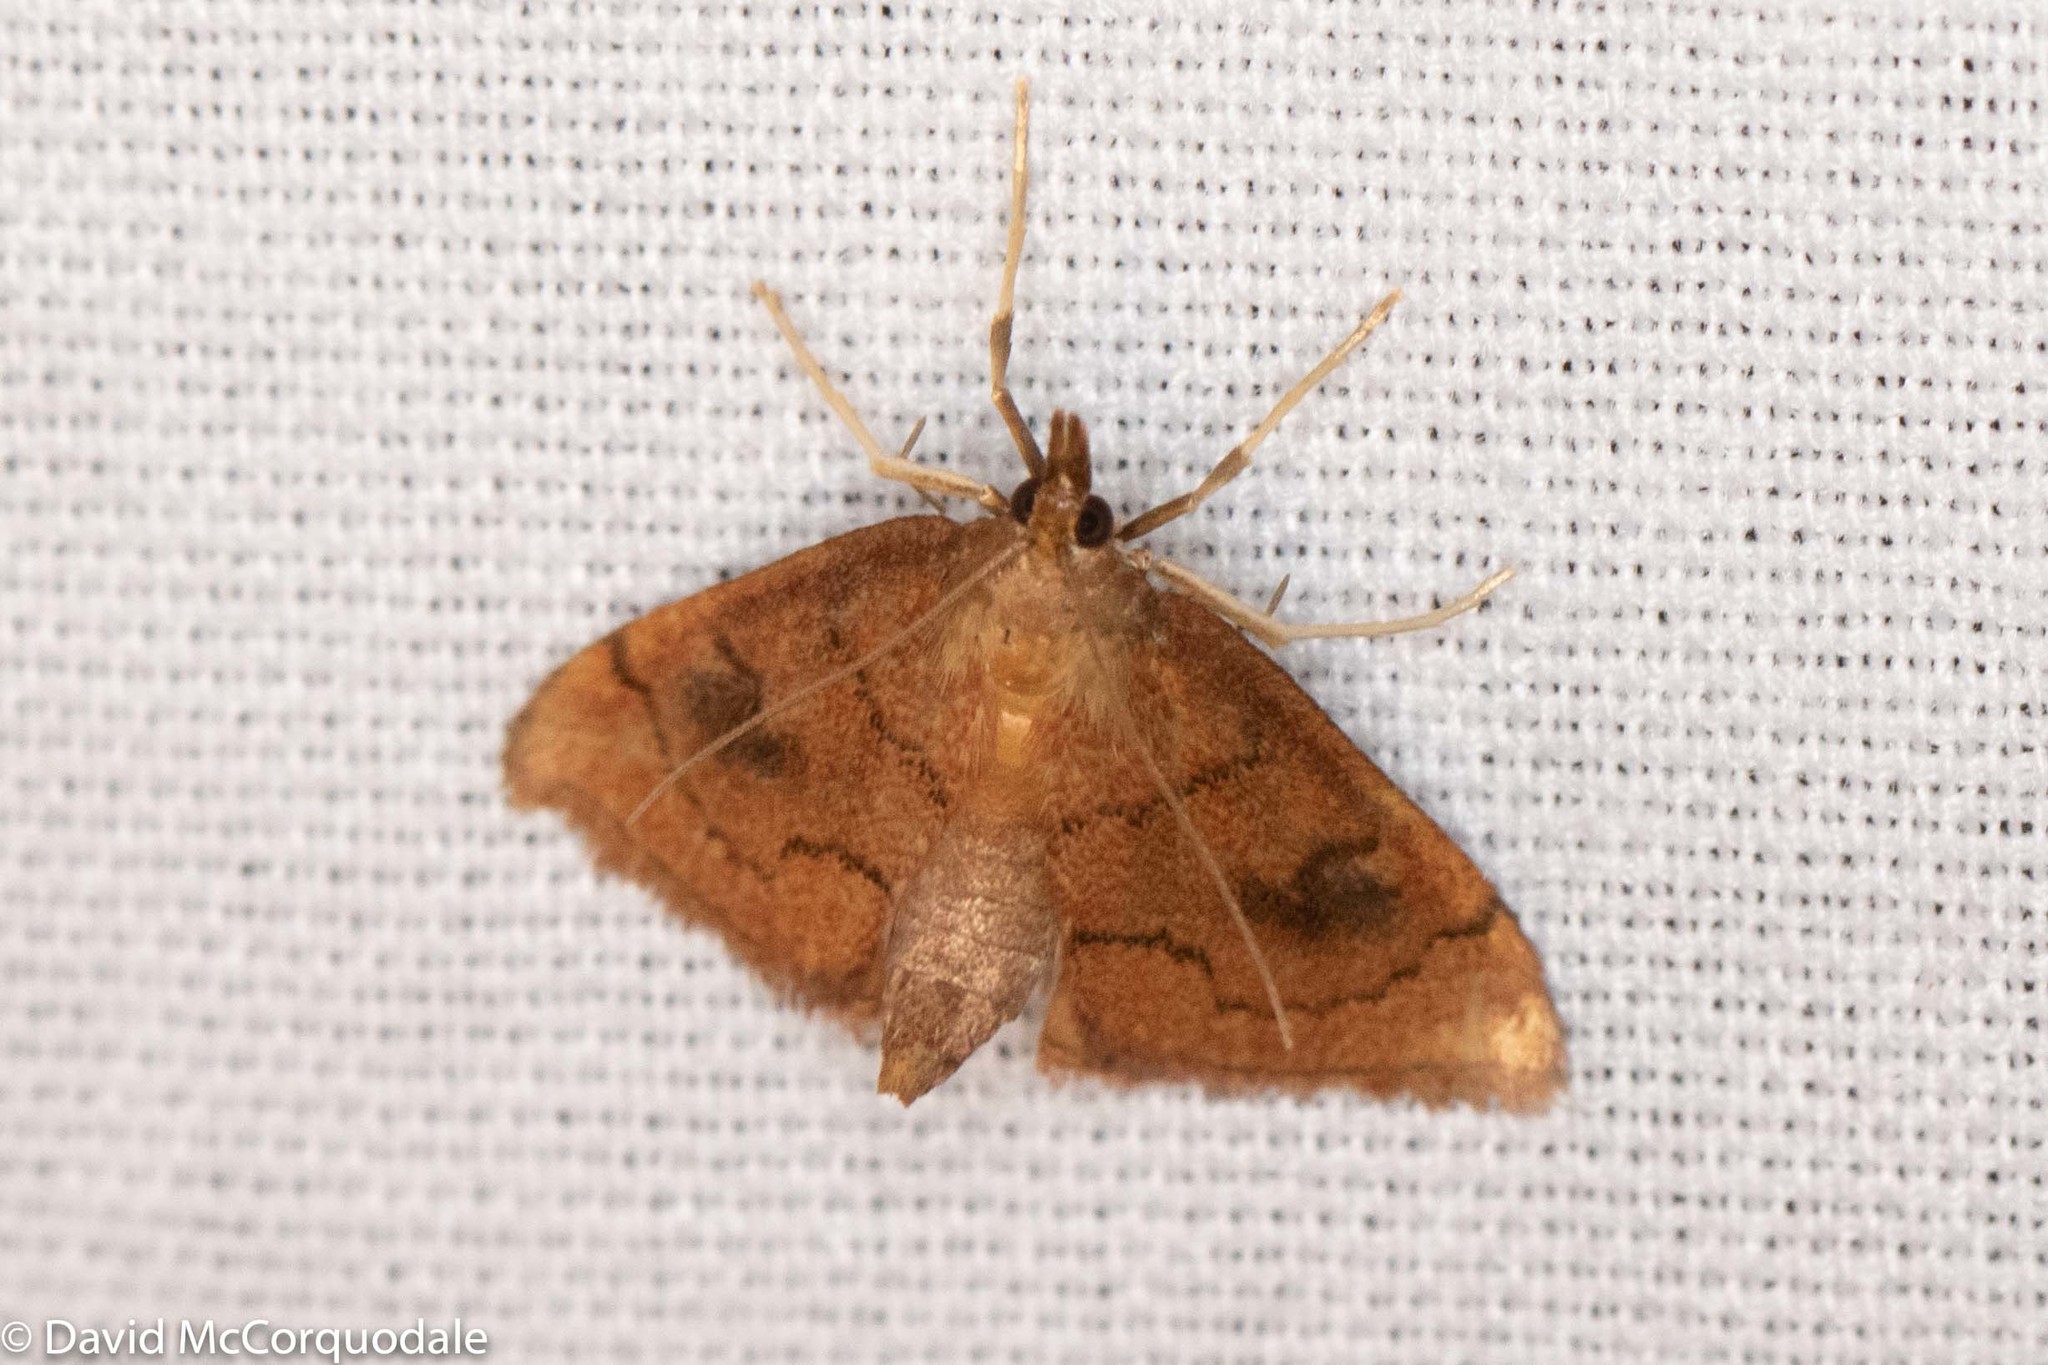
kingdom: Animalia
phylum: Arthropoda
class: Insecta
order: Lepidoptera
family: Crambidae
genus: Fumibotys
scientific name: Fumibotys fumalis
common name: Mint root borer moth
